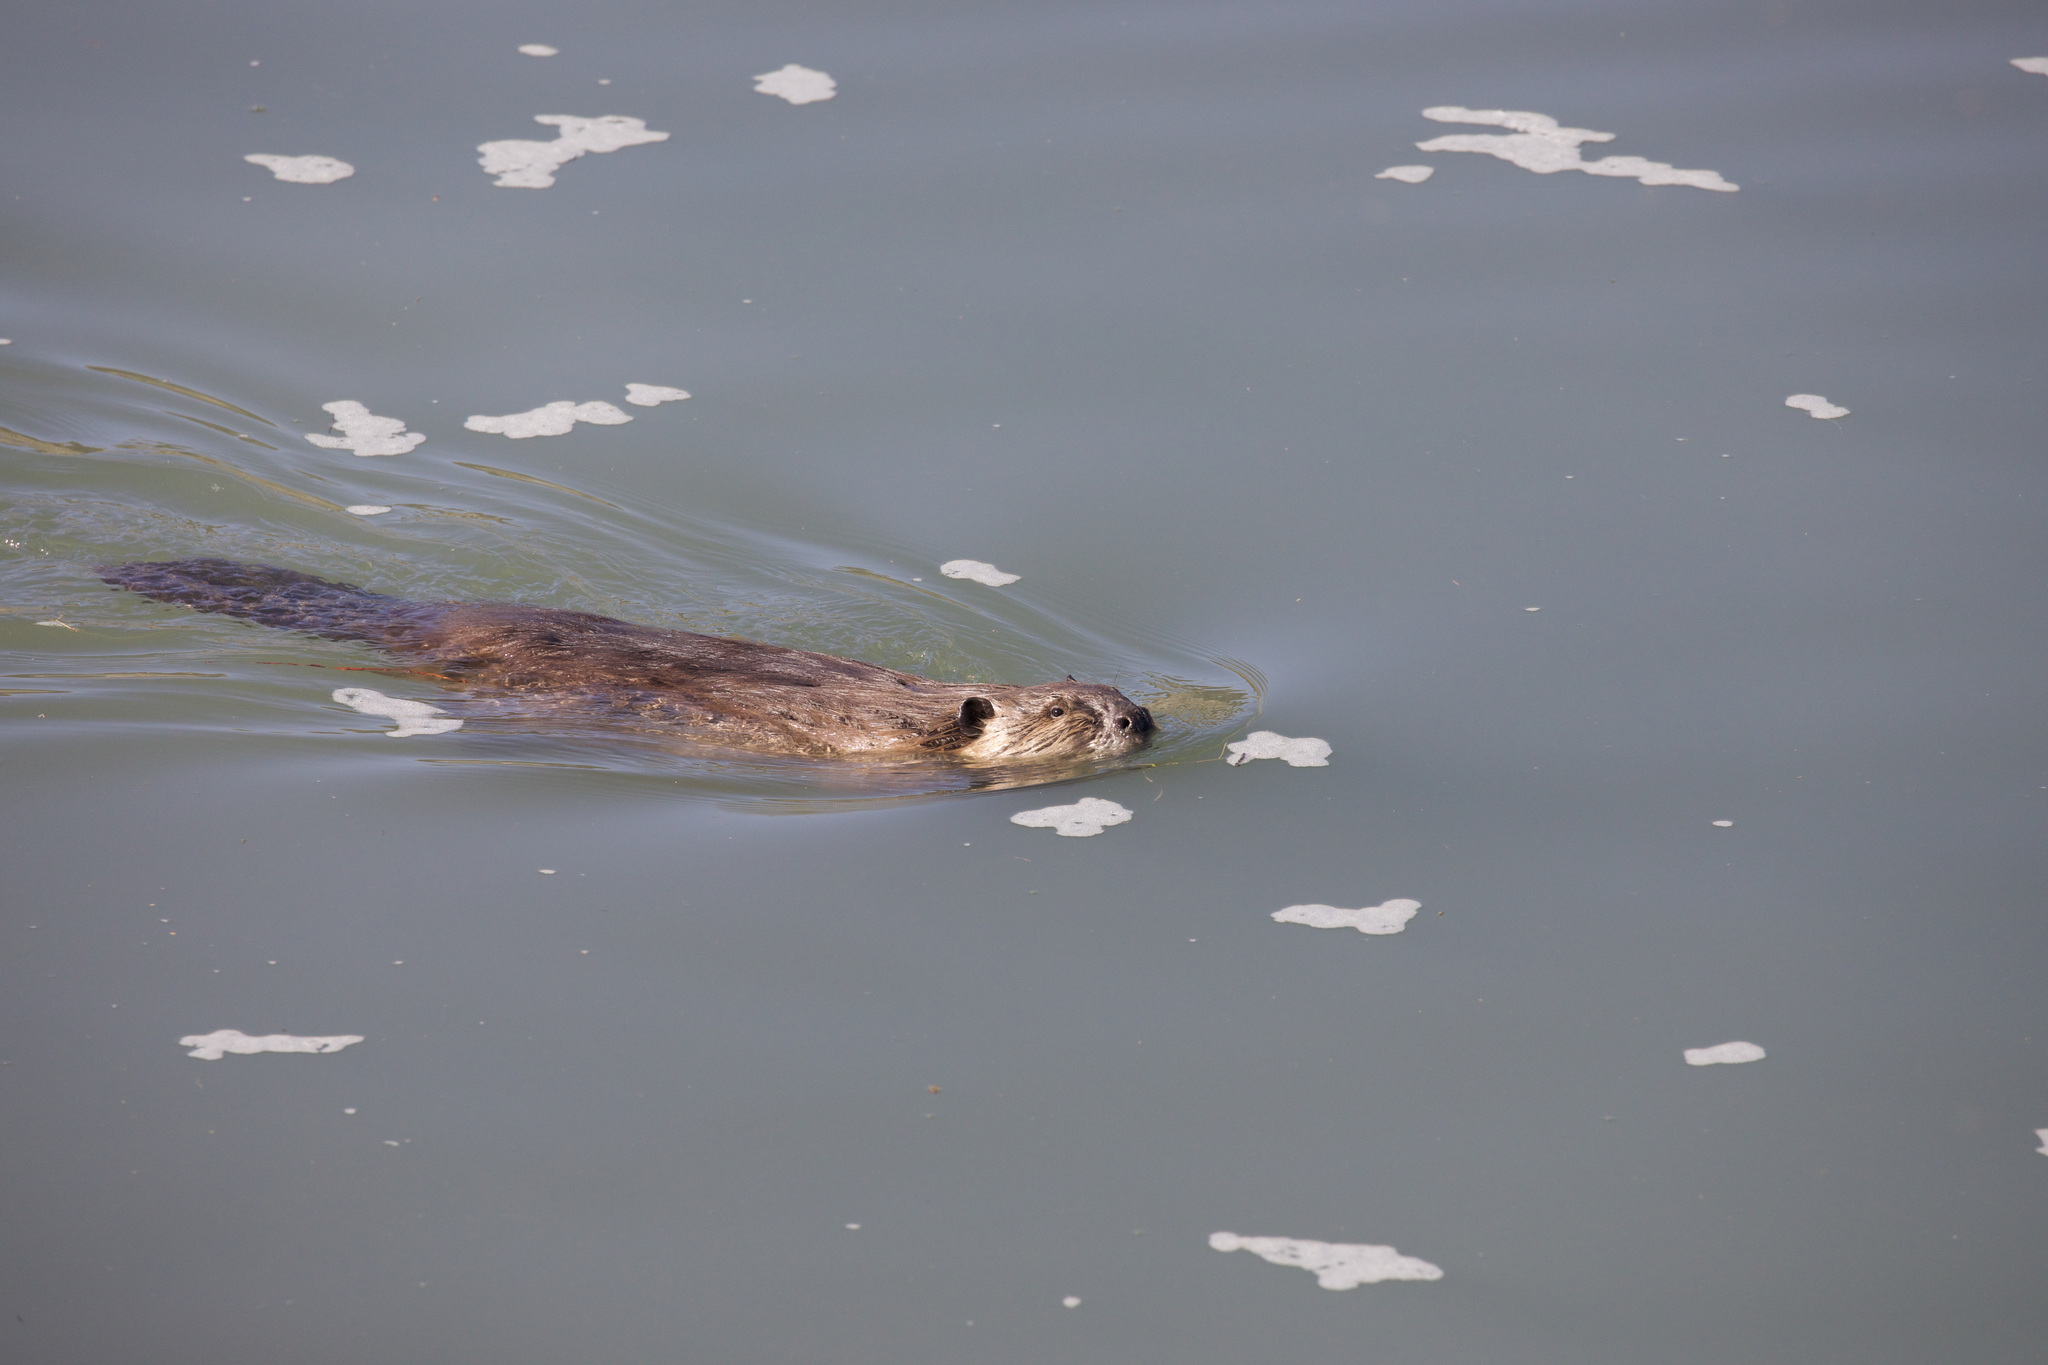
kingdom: Animalia
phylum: Chordata
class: Mammalia
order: Rodentia
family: Castoridae
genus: Castor
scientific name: Castor canadensis
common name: American beaver
